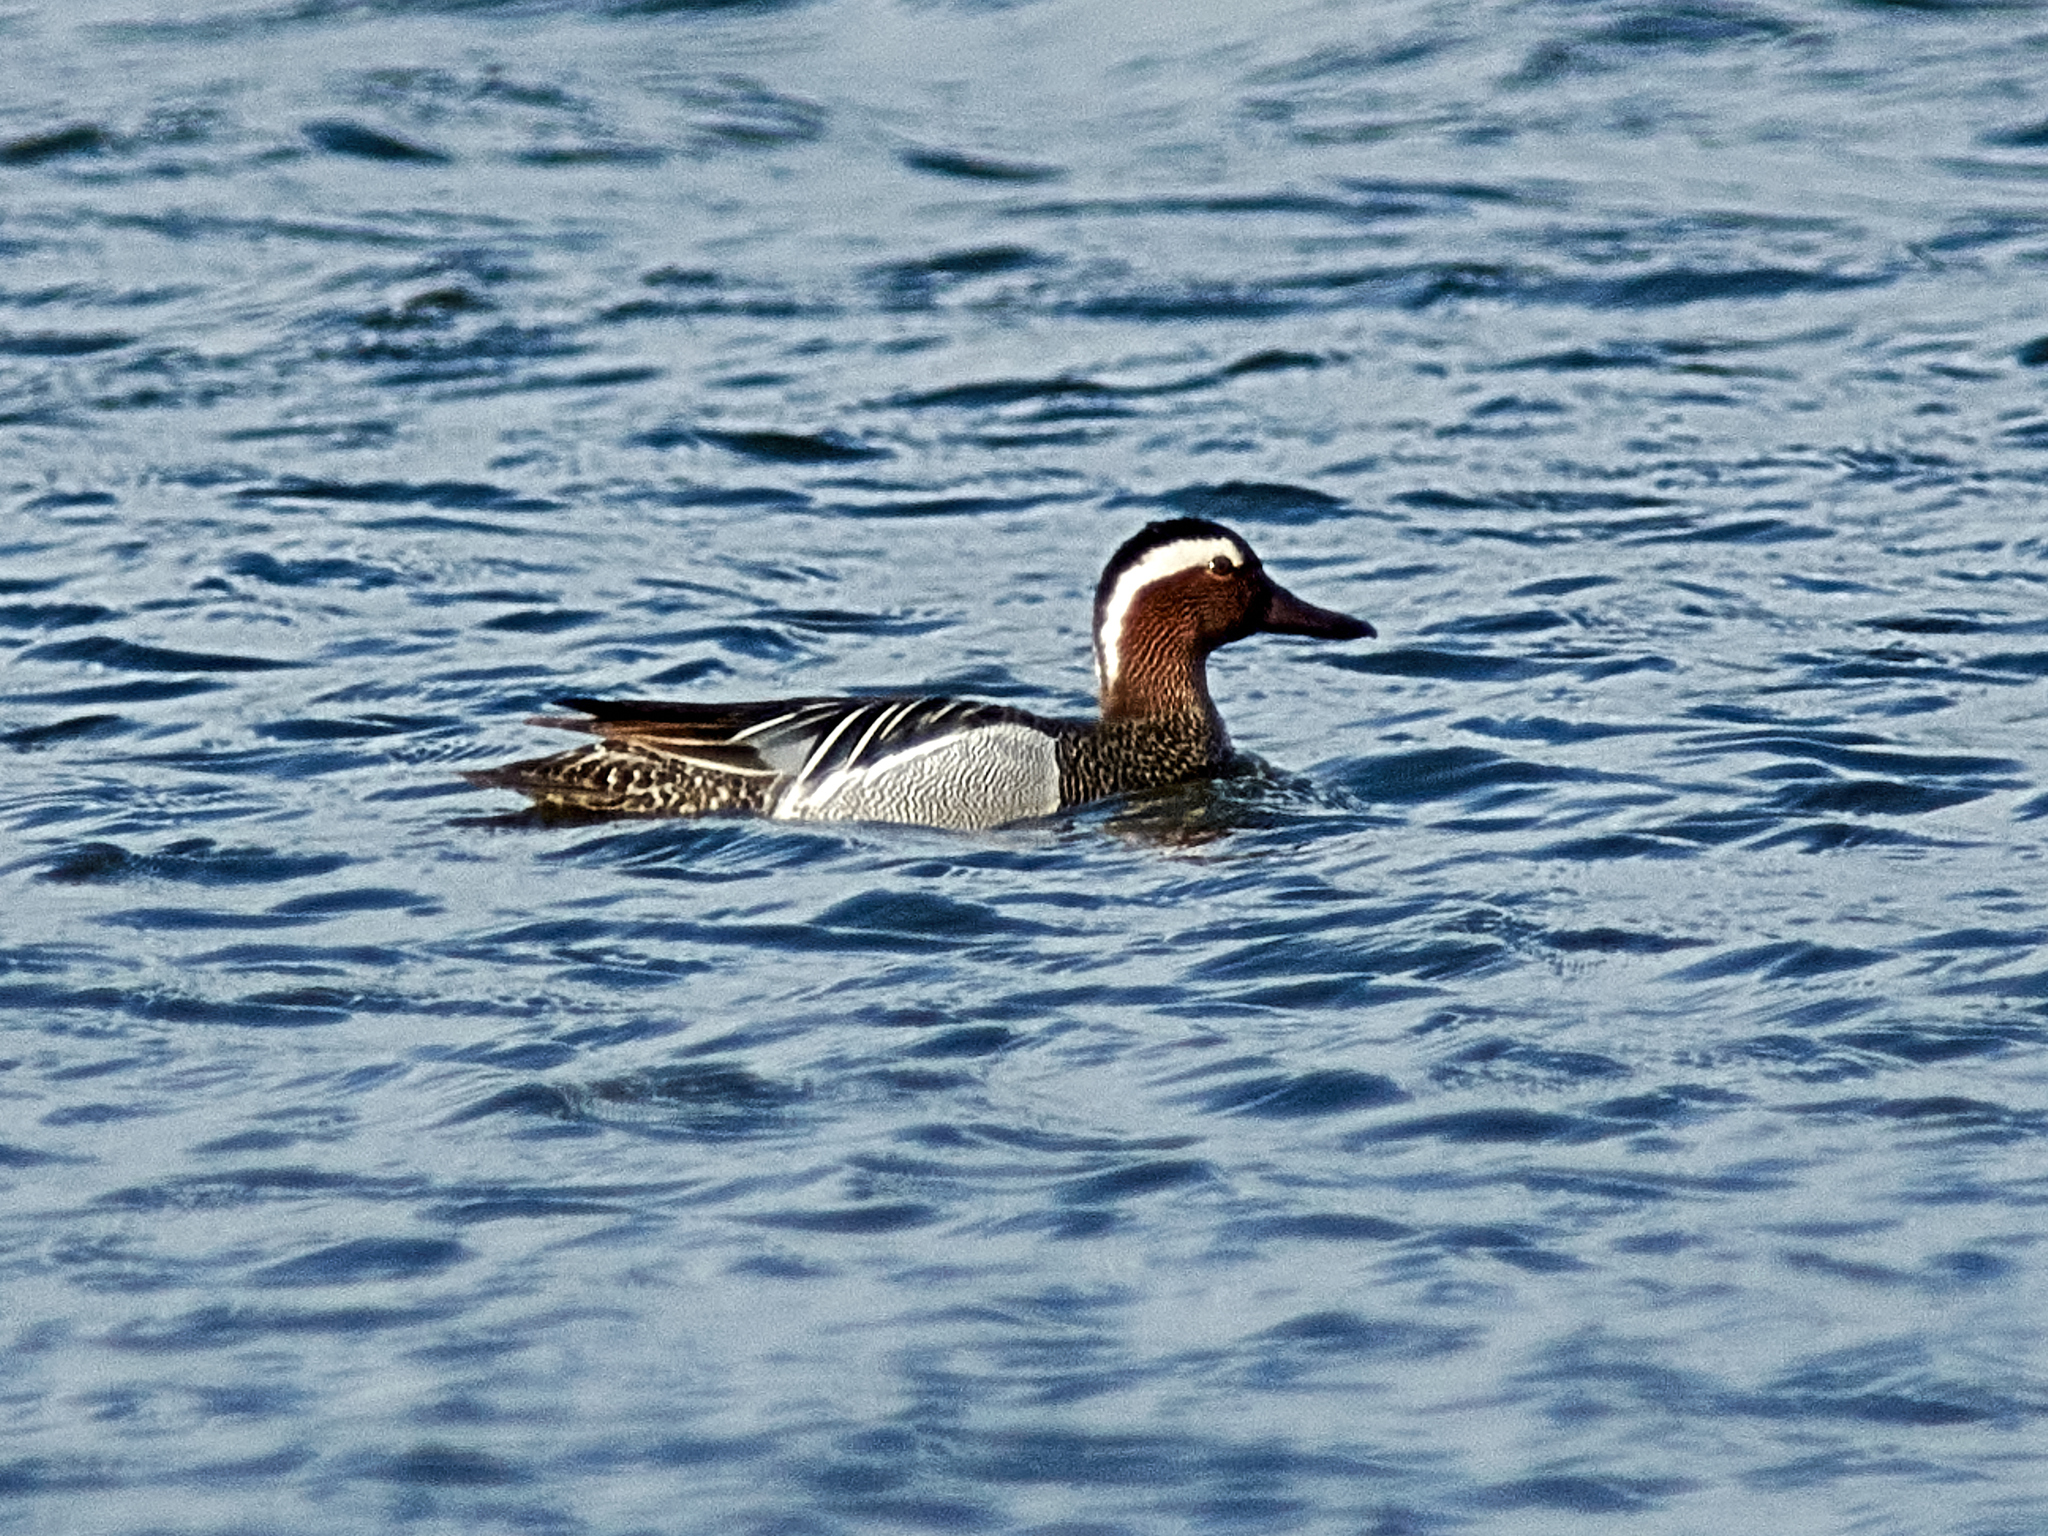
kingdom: Animalia
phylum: Chordata
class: Aves
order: Anseriformes
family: Anatidae
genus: Spatula
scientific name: Spatula querquedula
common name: Garganey
